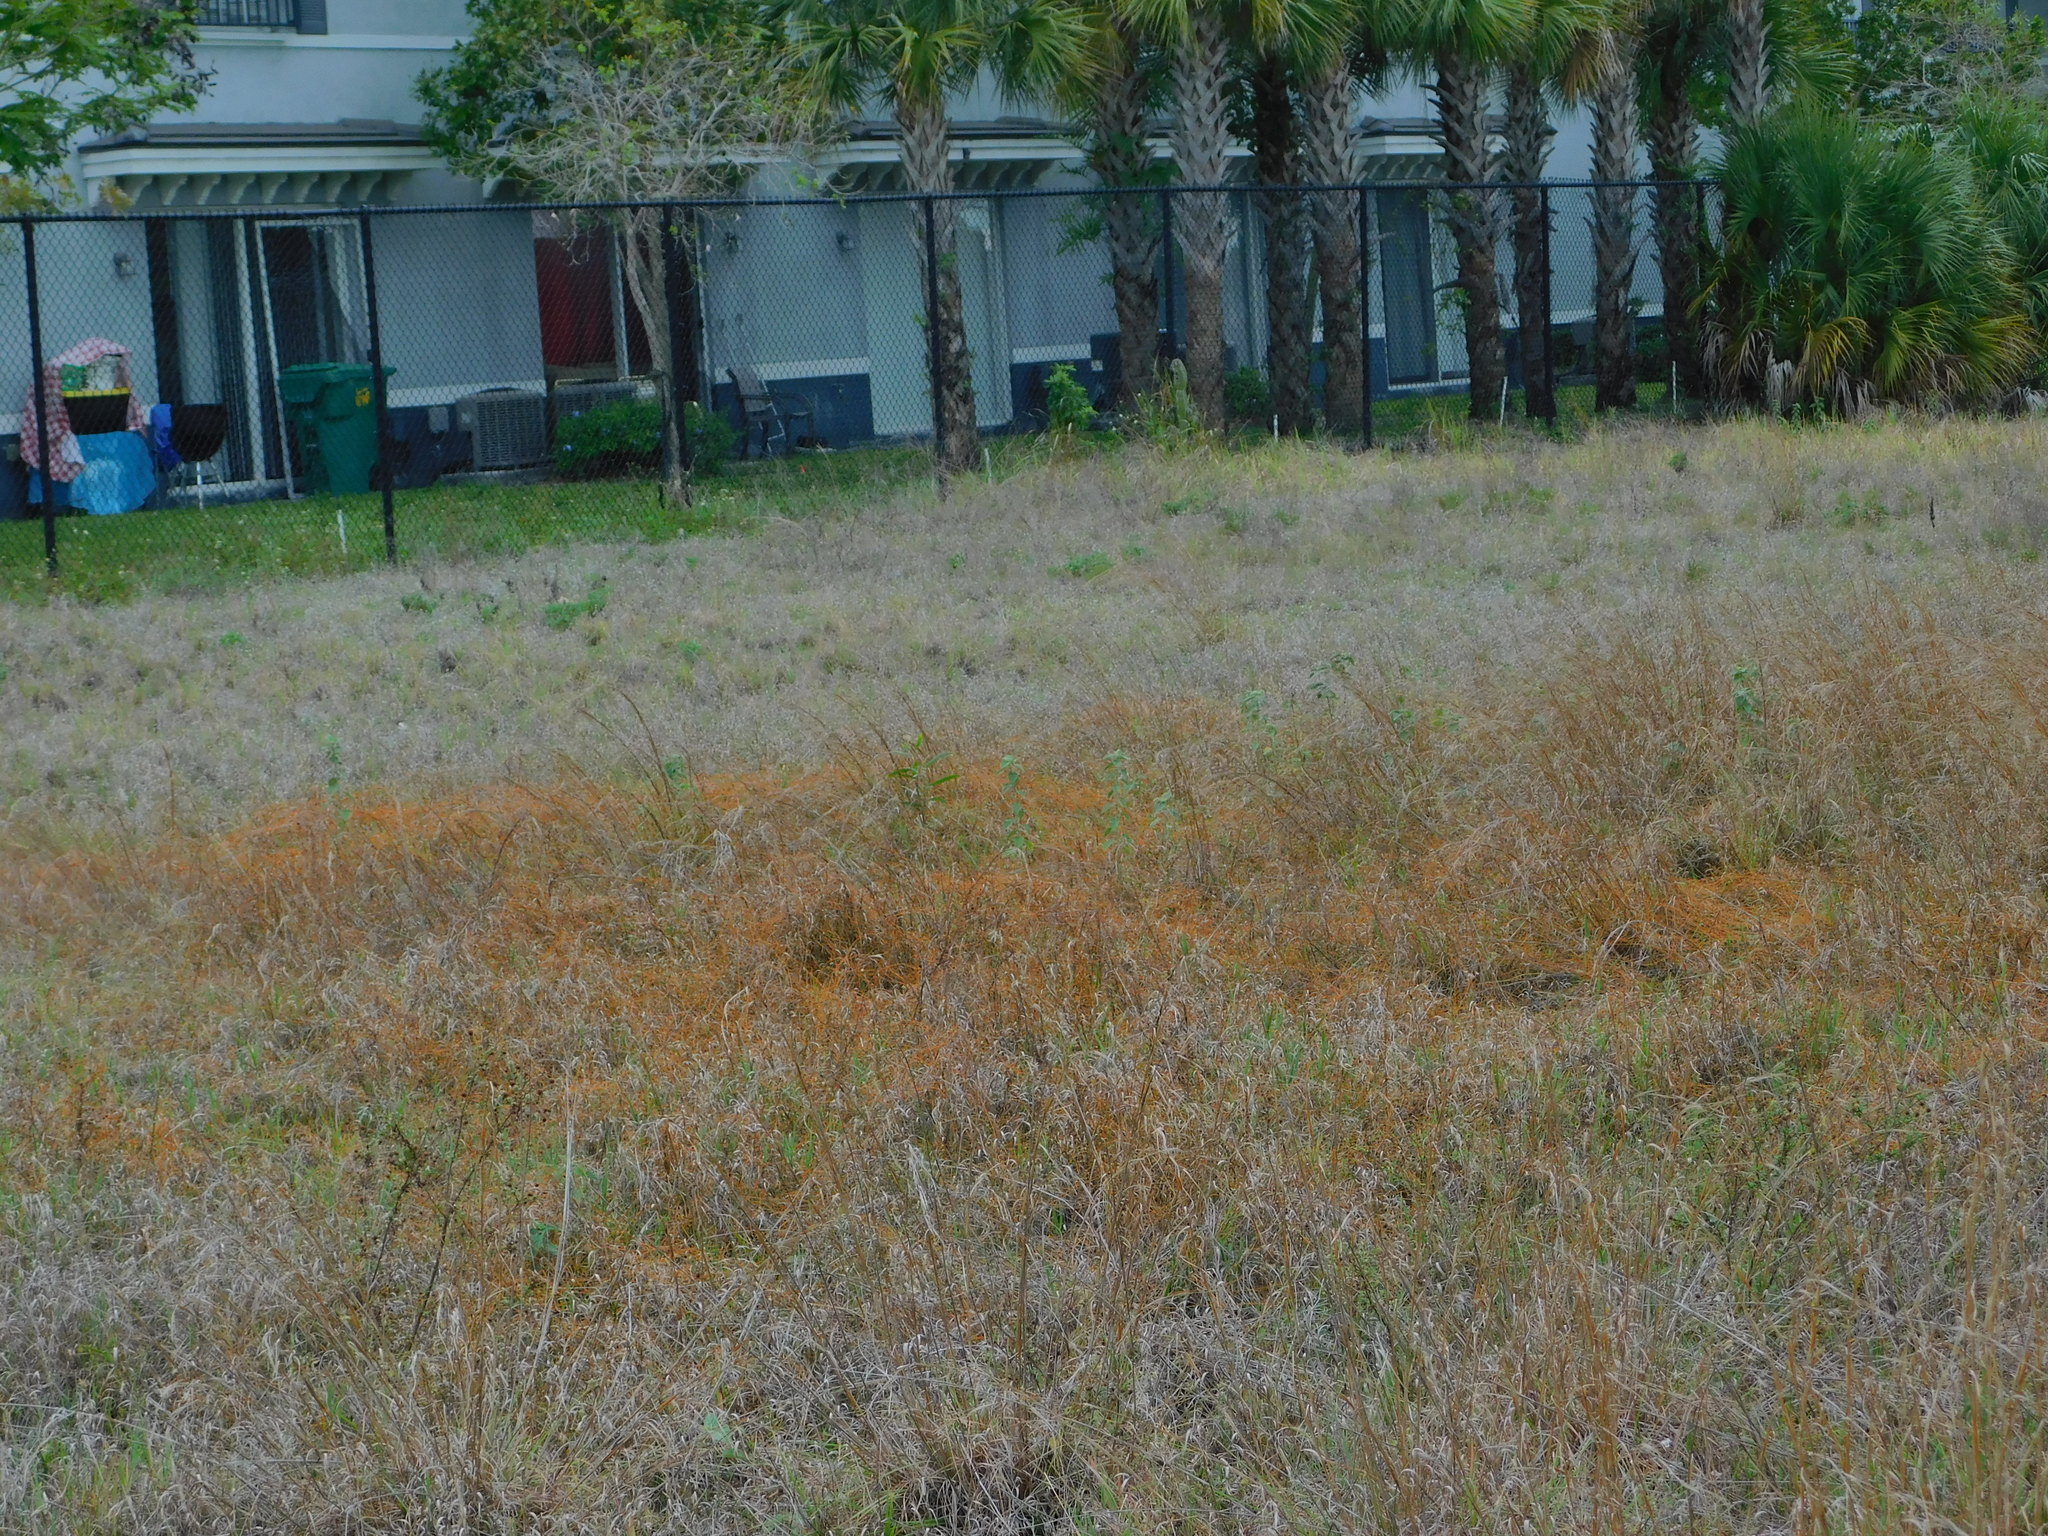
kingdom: Plantae
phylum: Tracheophyta
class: Magnoliopsida
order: Laurales
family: Lauraceae
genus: Cassytha
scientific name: Cassytha filiformis
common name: Dodder-laurel
